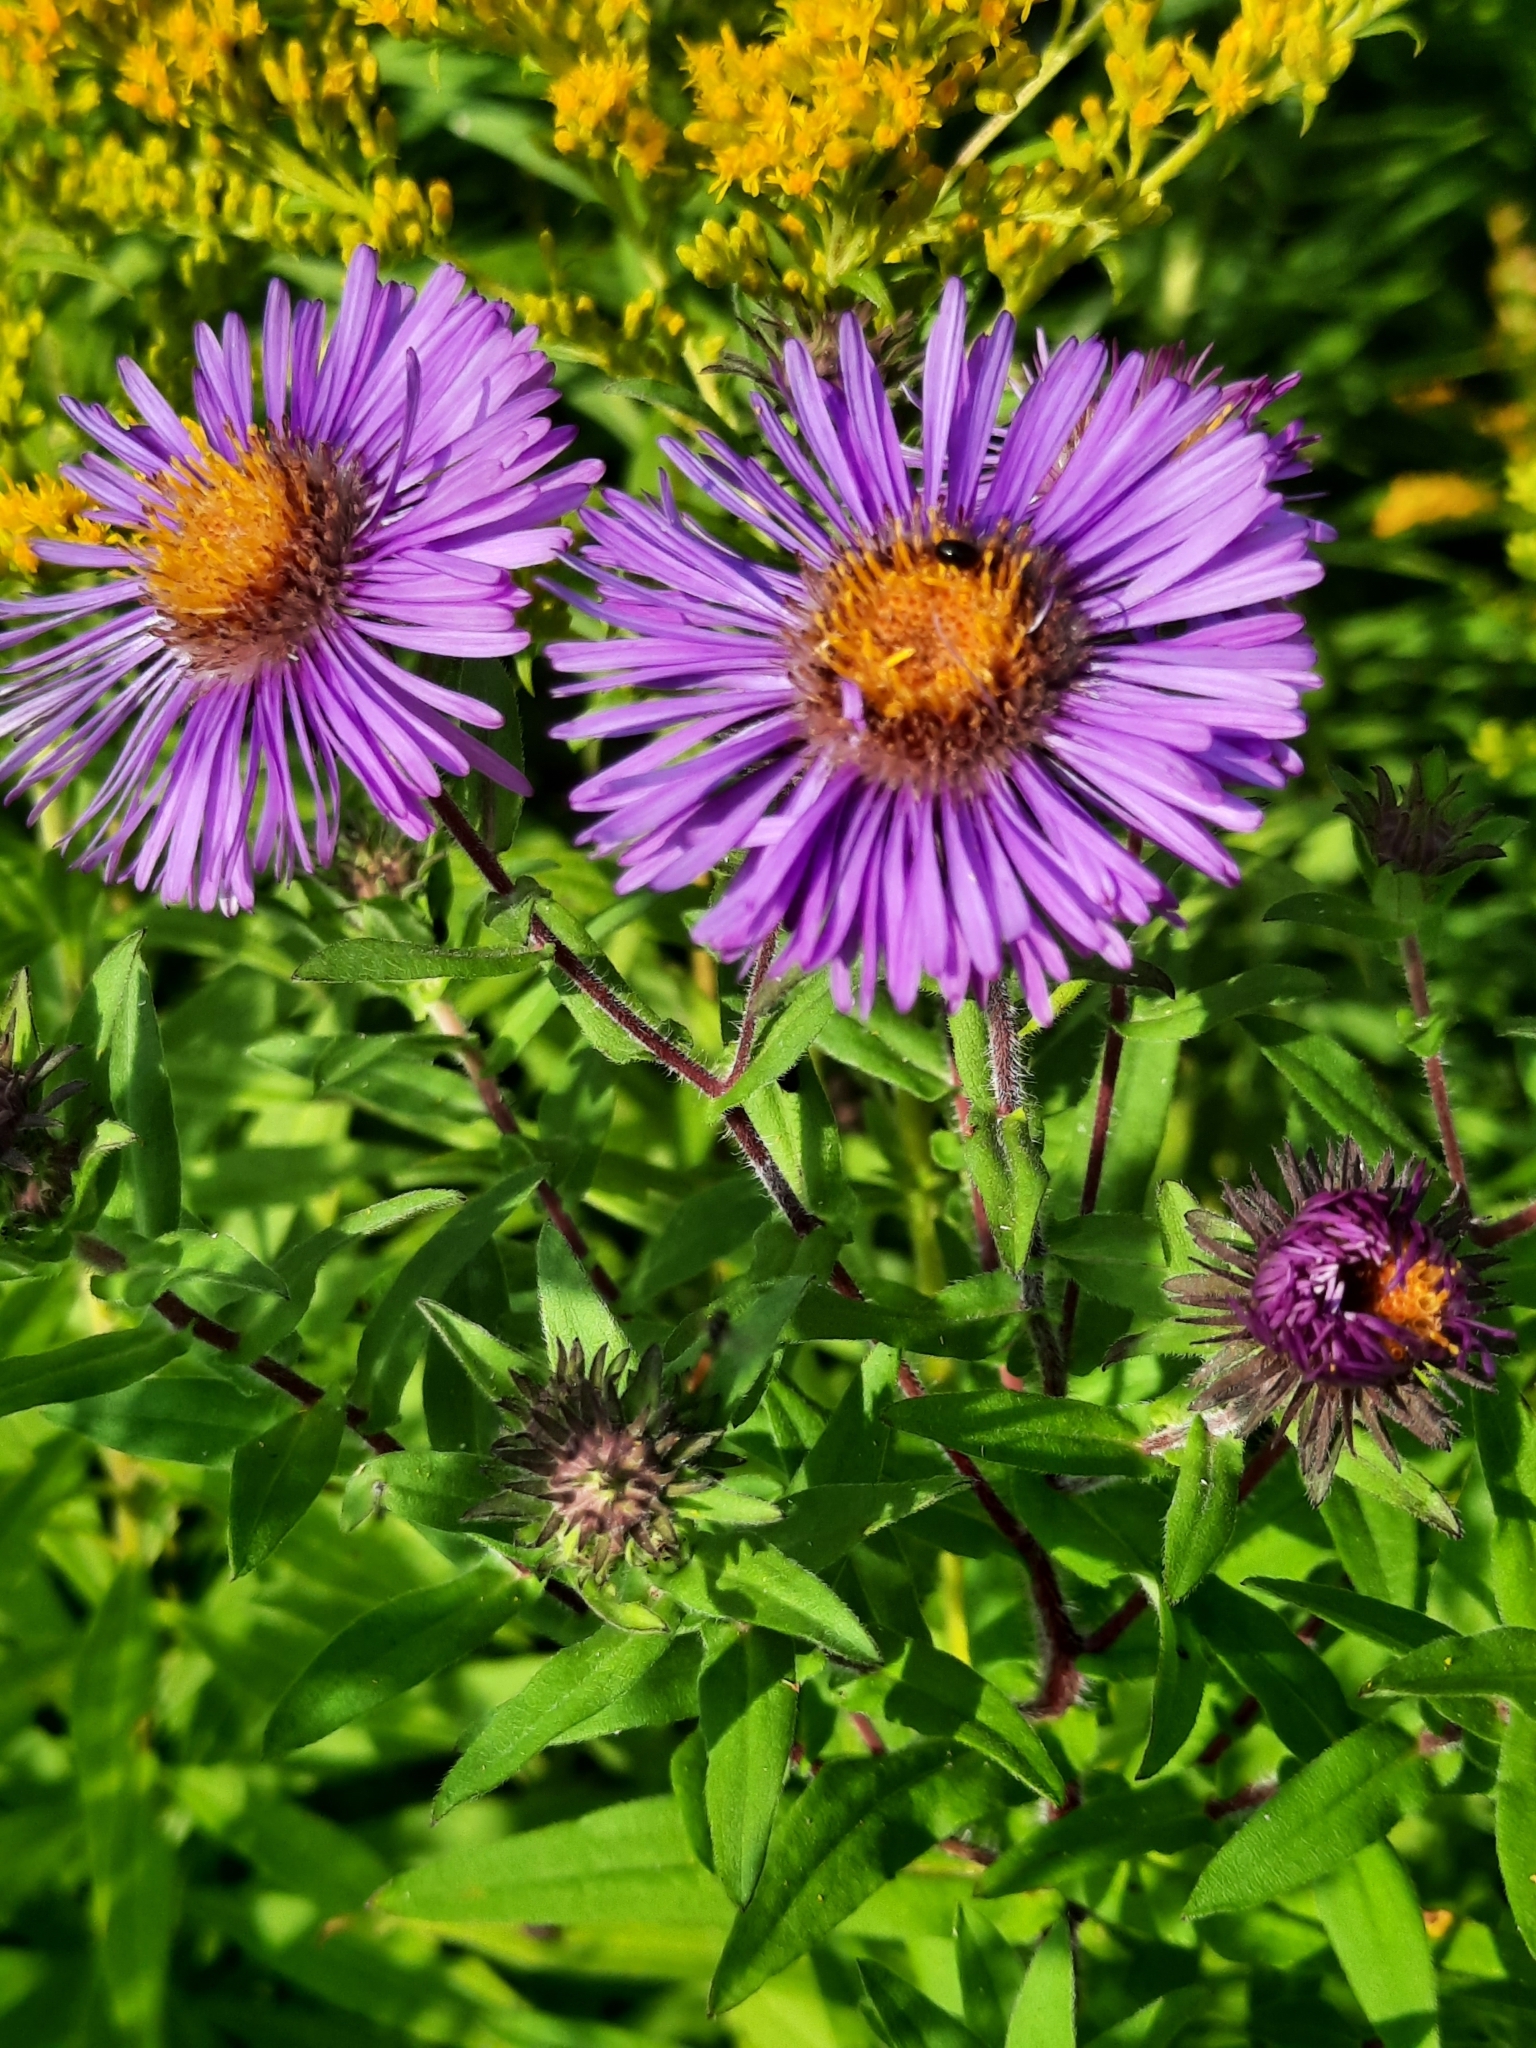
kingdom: Plantae
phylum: Tracheophyta
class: Magnoliopsida
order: Asterales
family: Asteraceae
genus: Symphyotrichum
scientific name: Symphyotrichum novae-angliae
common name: Michaelmas daisy
